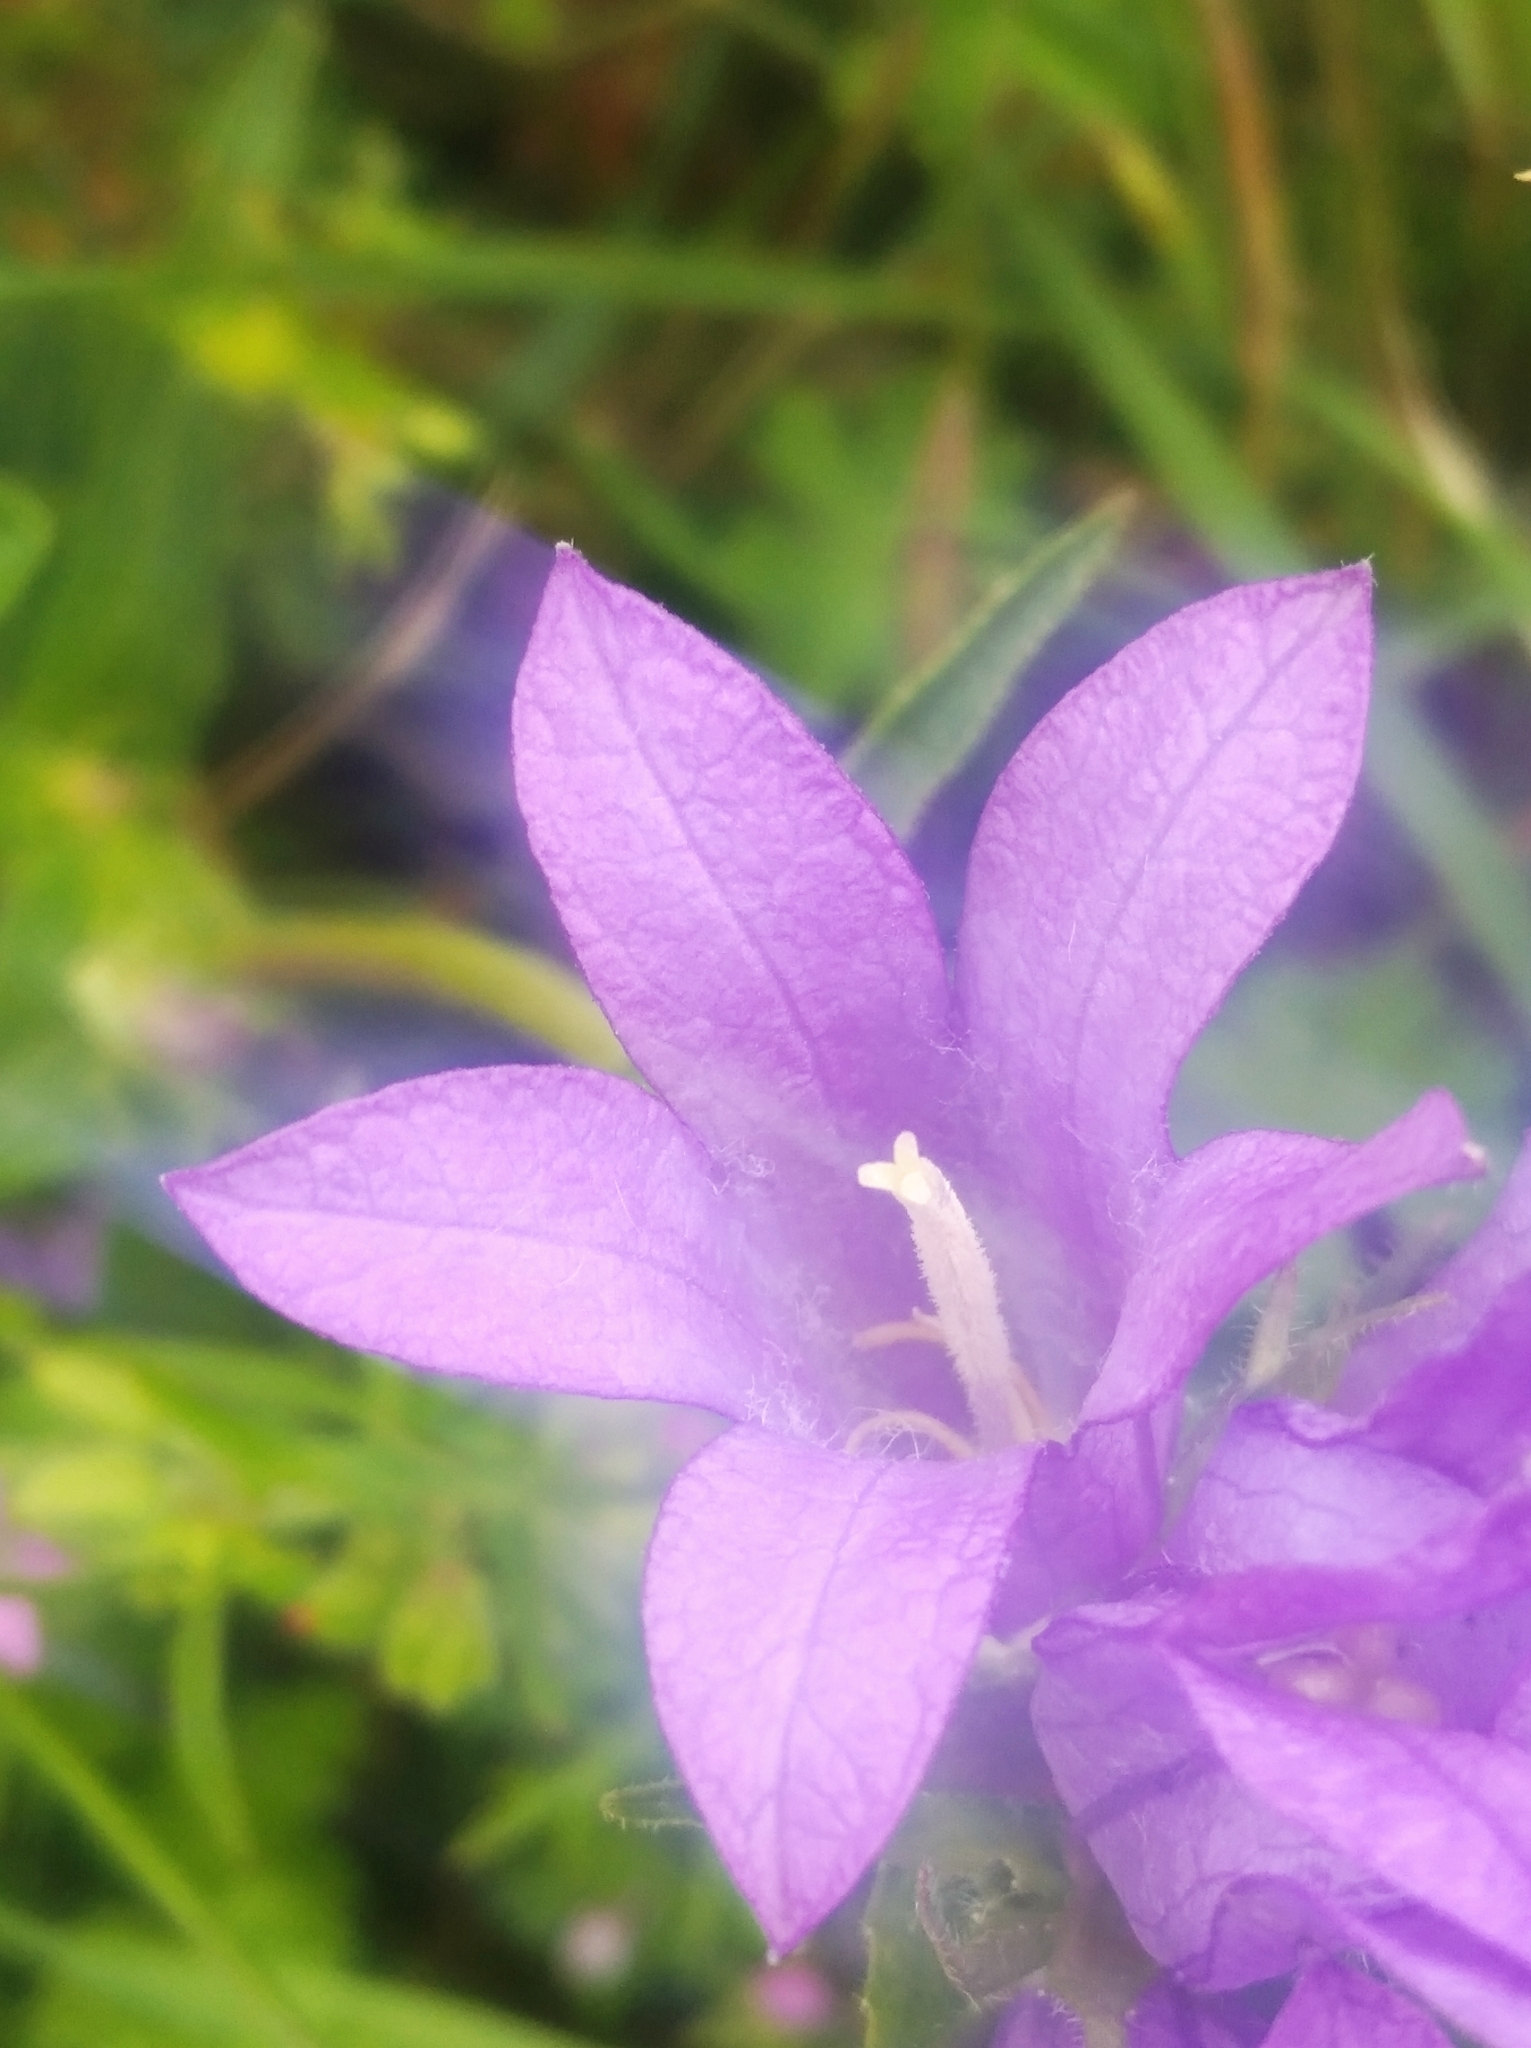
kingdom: Plantae
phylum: Tracheophyta
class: Magnoliopsida
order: Asterales
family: Campanulaceae
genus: Campanula
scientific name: Campanula glomerata
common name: Clustered bellflower
